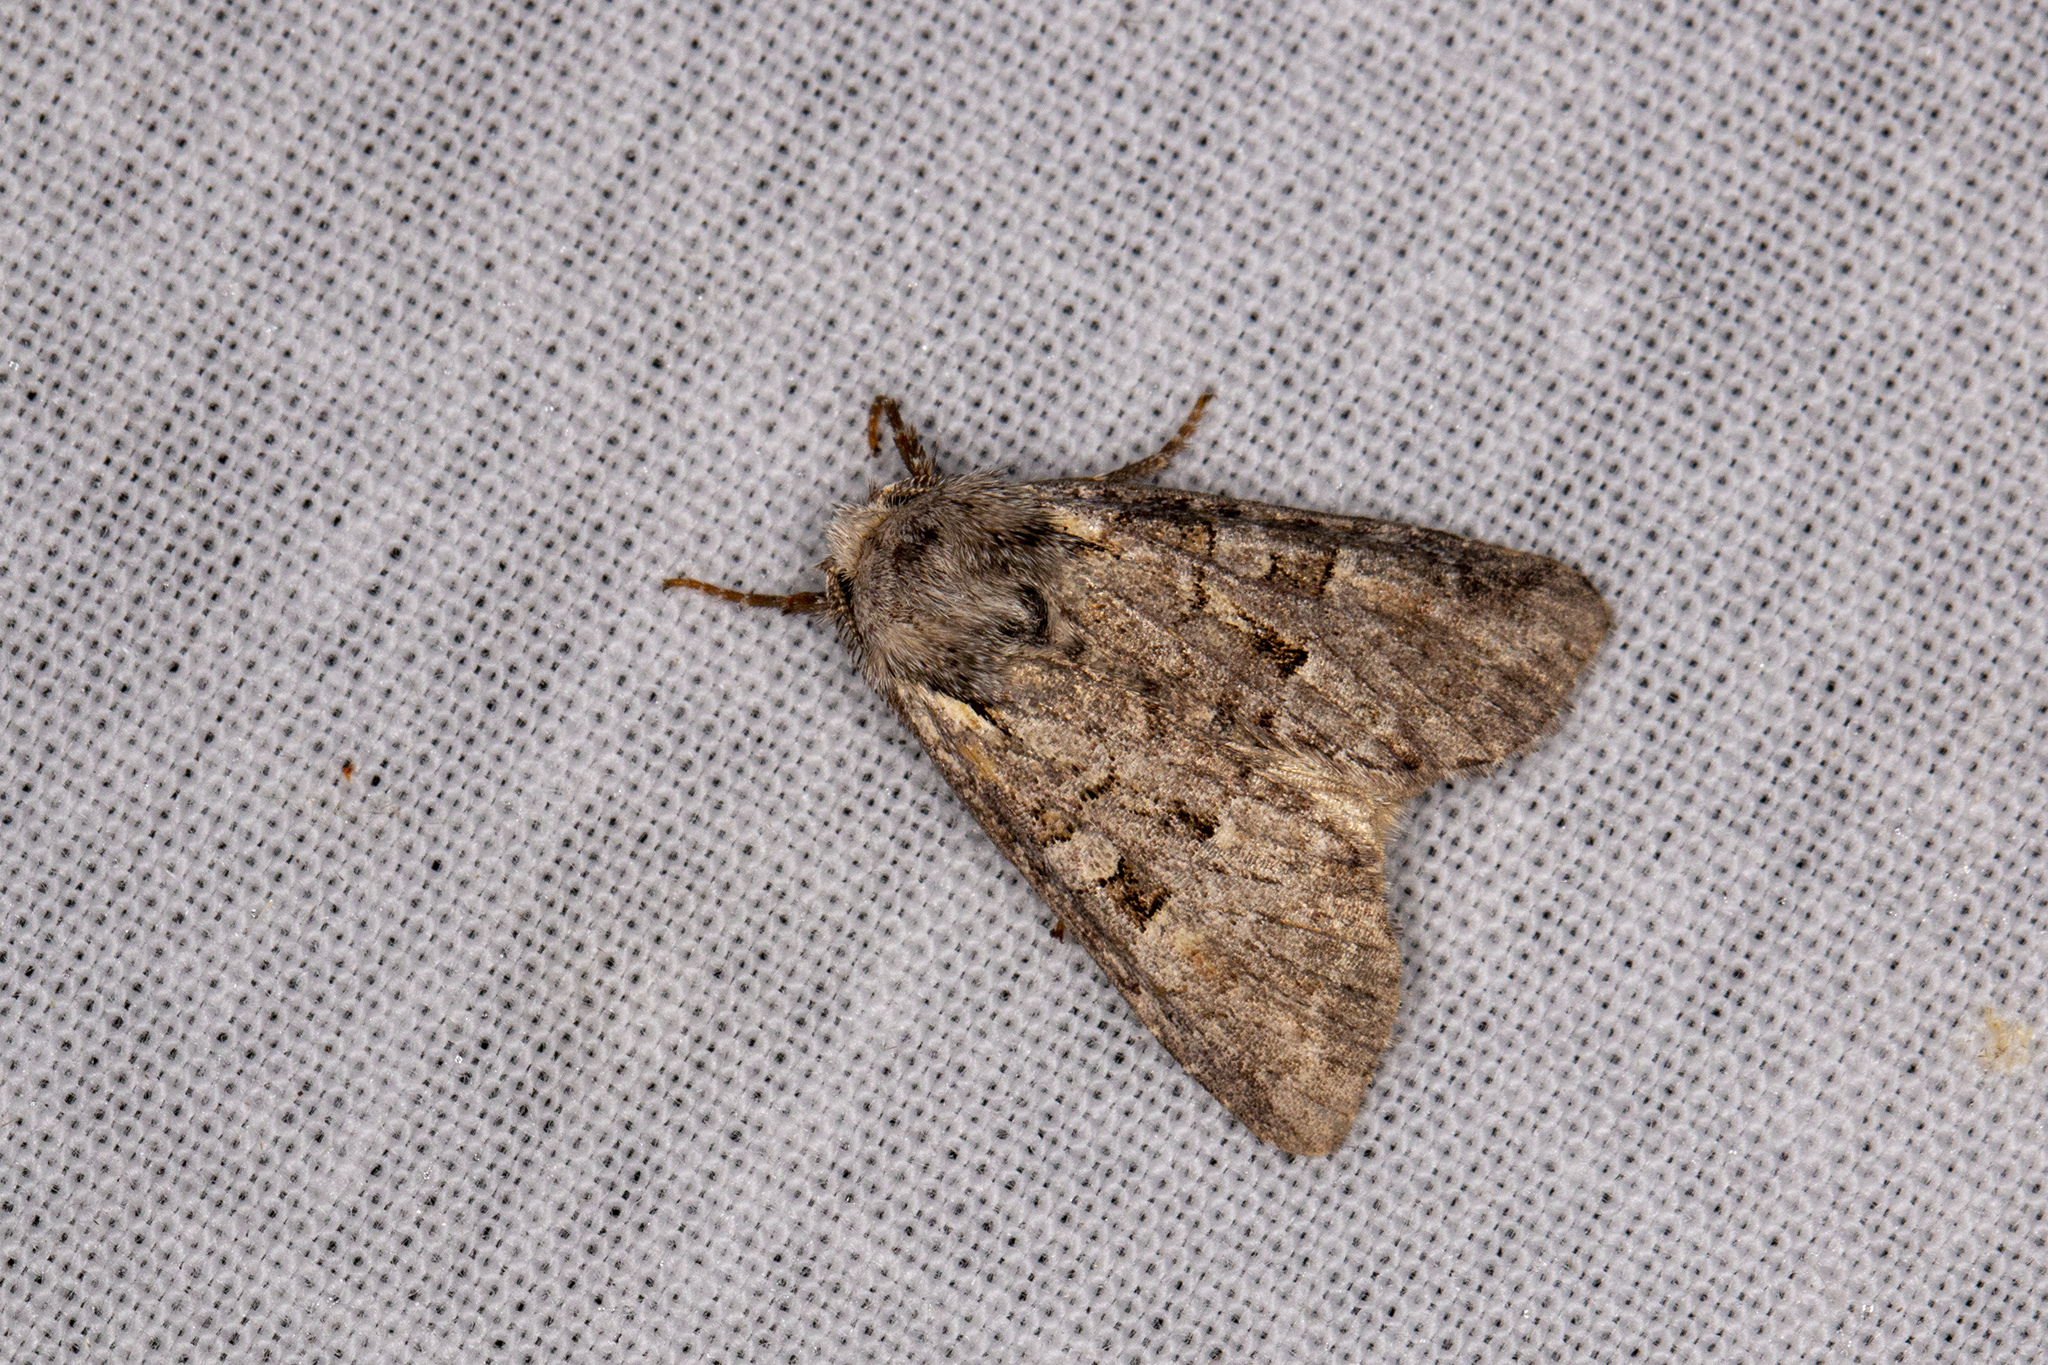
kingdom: Animalia
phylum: Arthropoda
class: Insecta
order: Lepidoptera
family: Noctuidae
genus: Brachylomia
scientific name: Brachylomia viminalis
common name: Minor shoulder-knot
